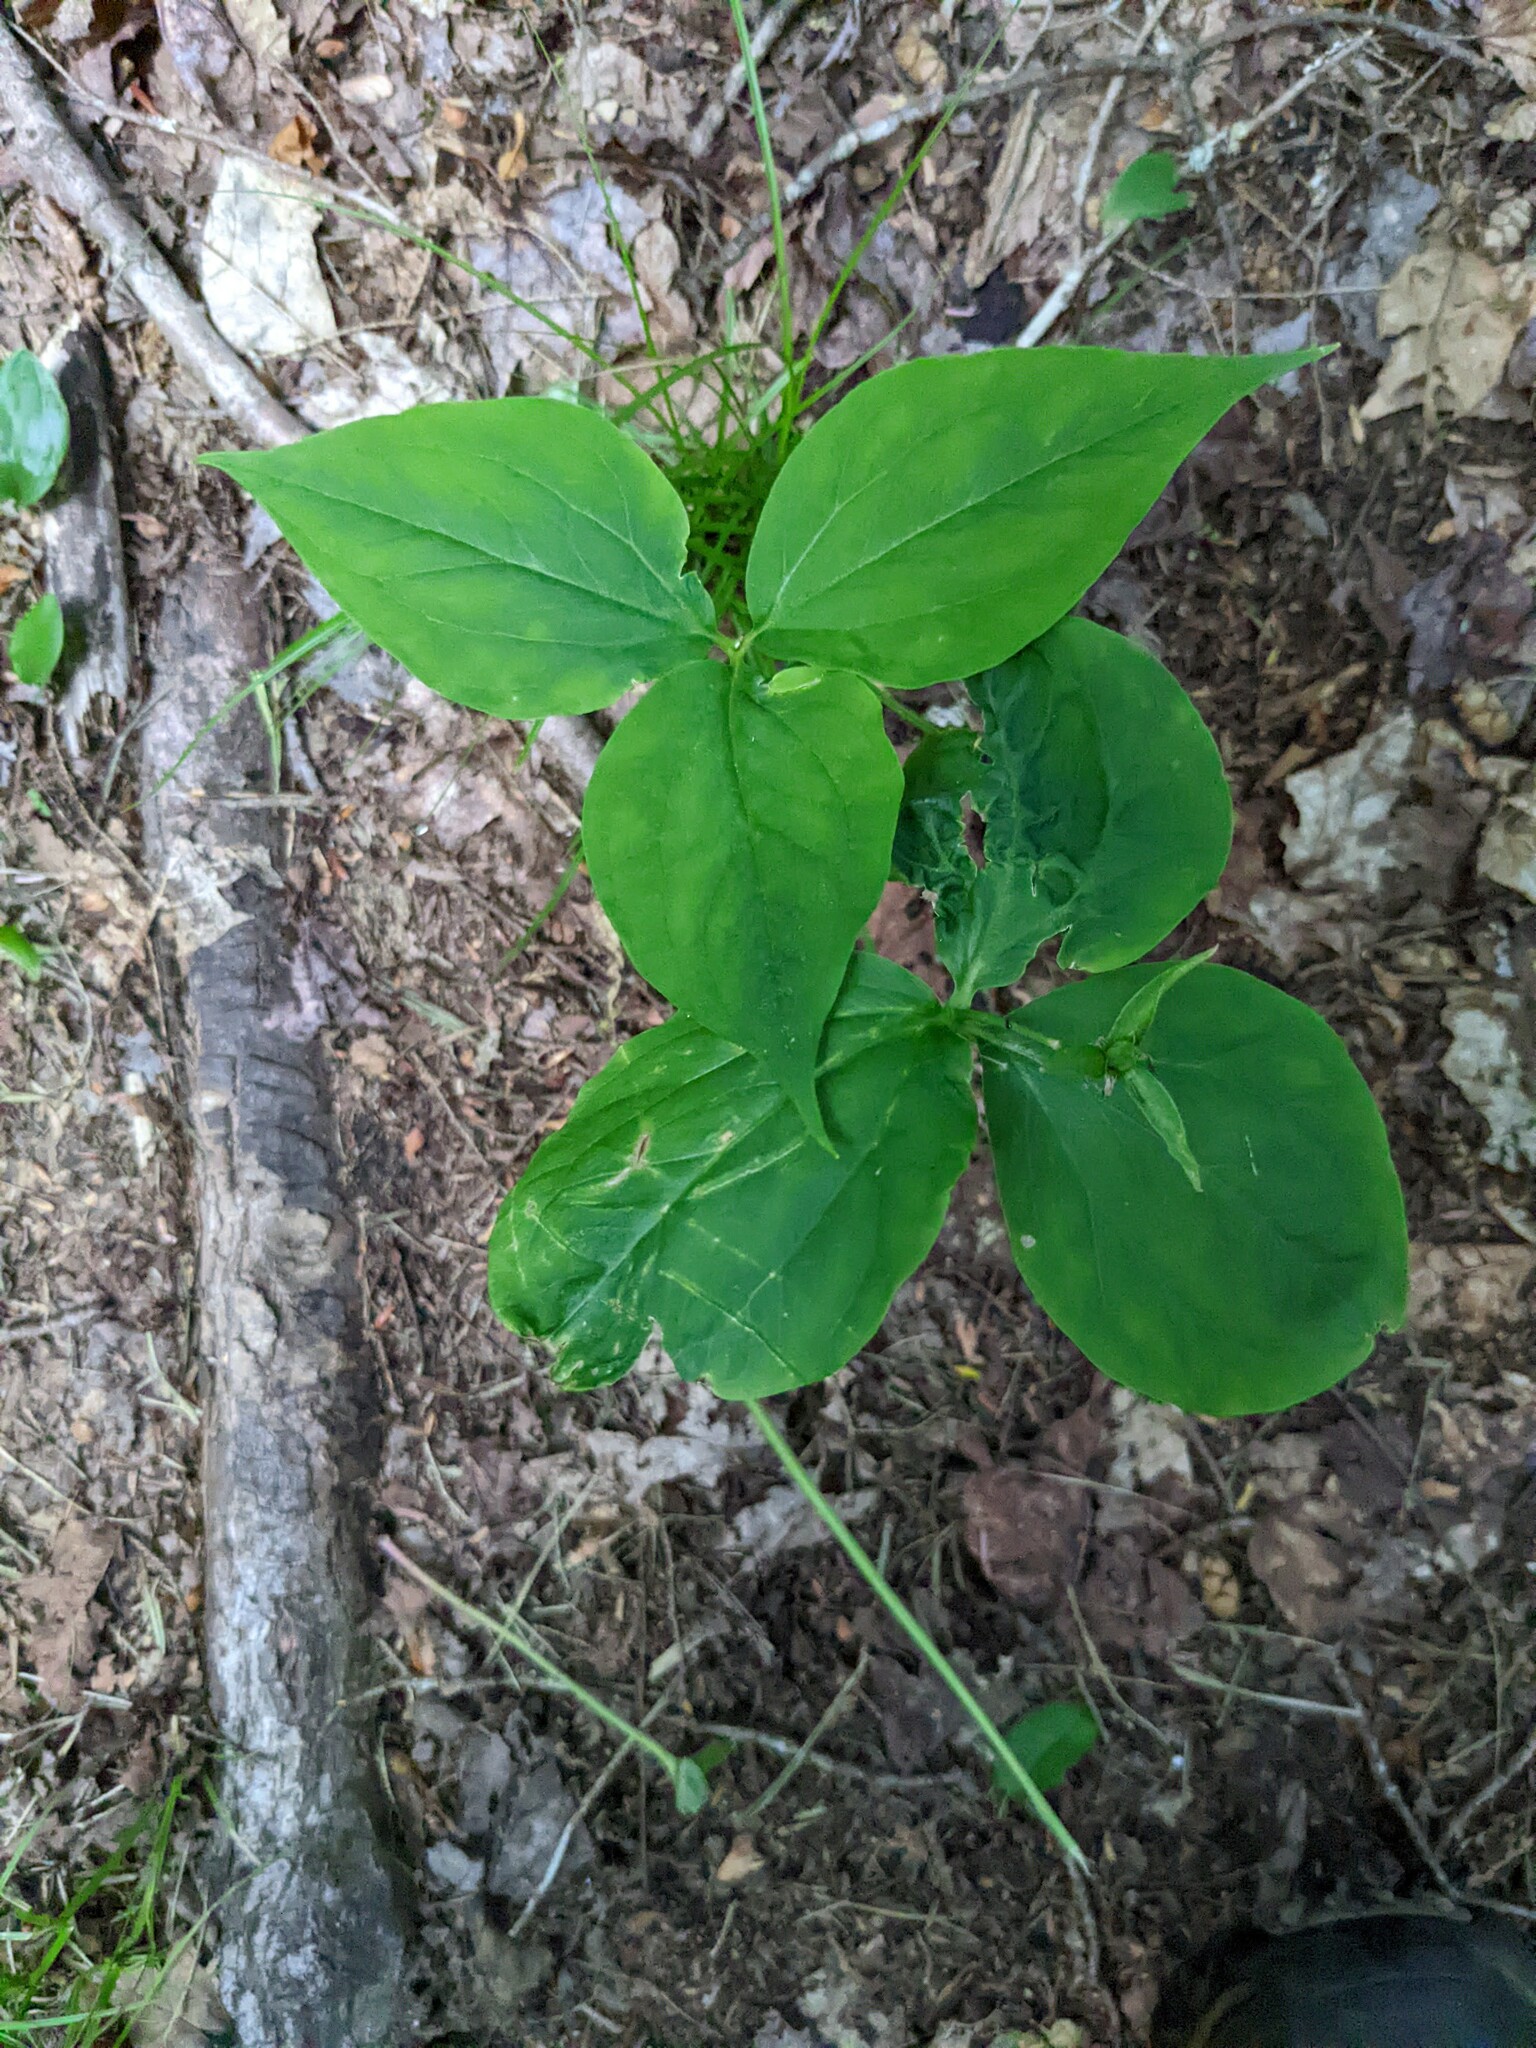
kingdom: Plantae
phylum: Tracheophyta
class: Liliopsida
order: Liliales
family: Melanthiaceae
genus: Trillium
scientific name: Trillium undulatum
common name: Paint trillium
